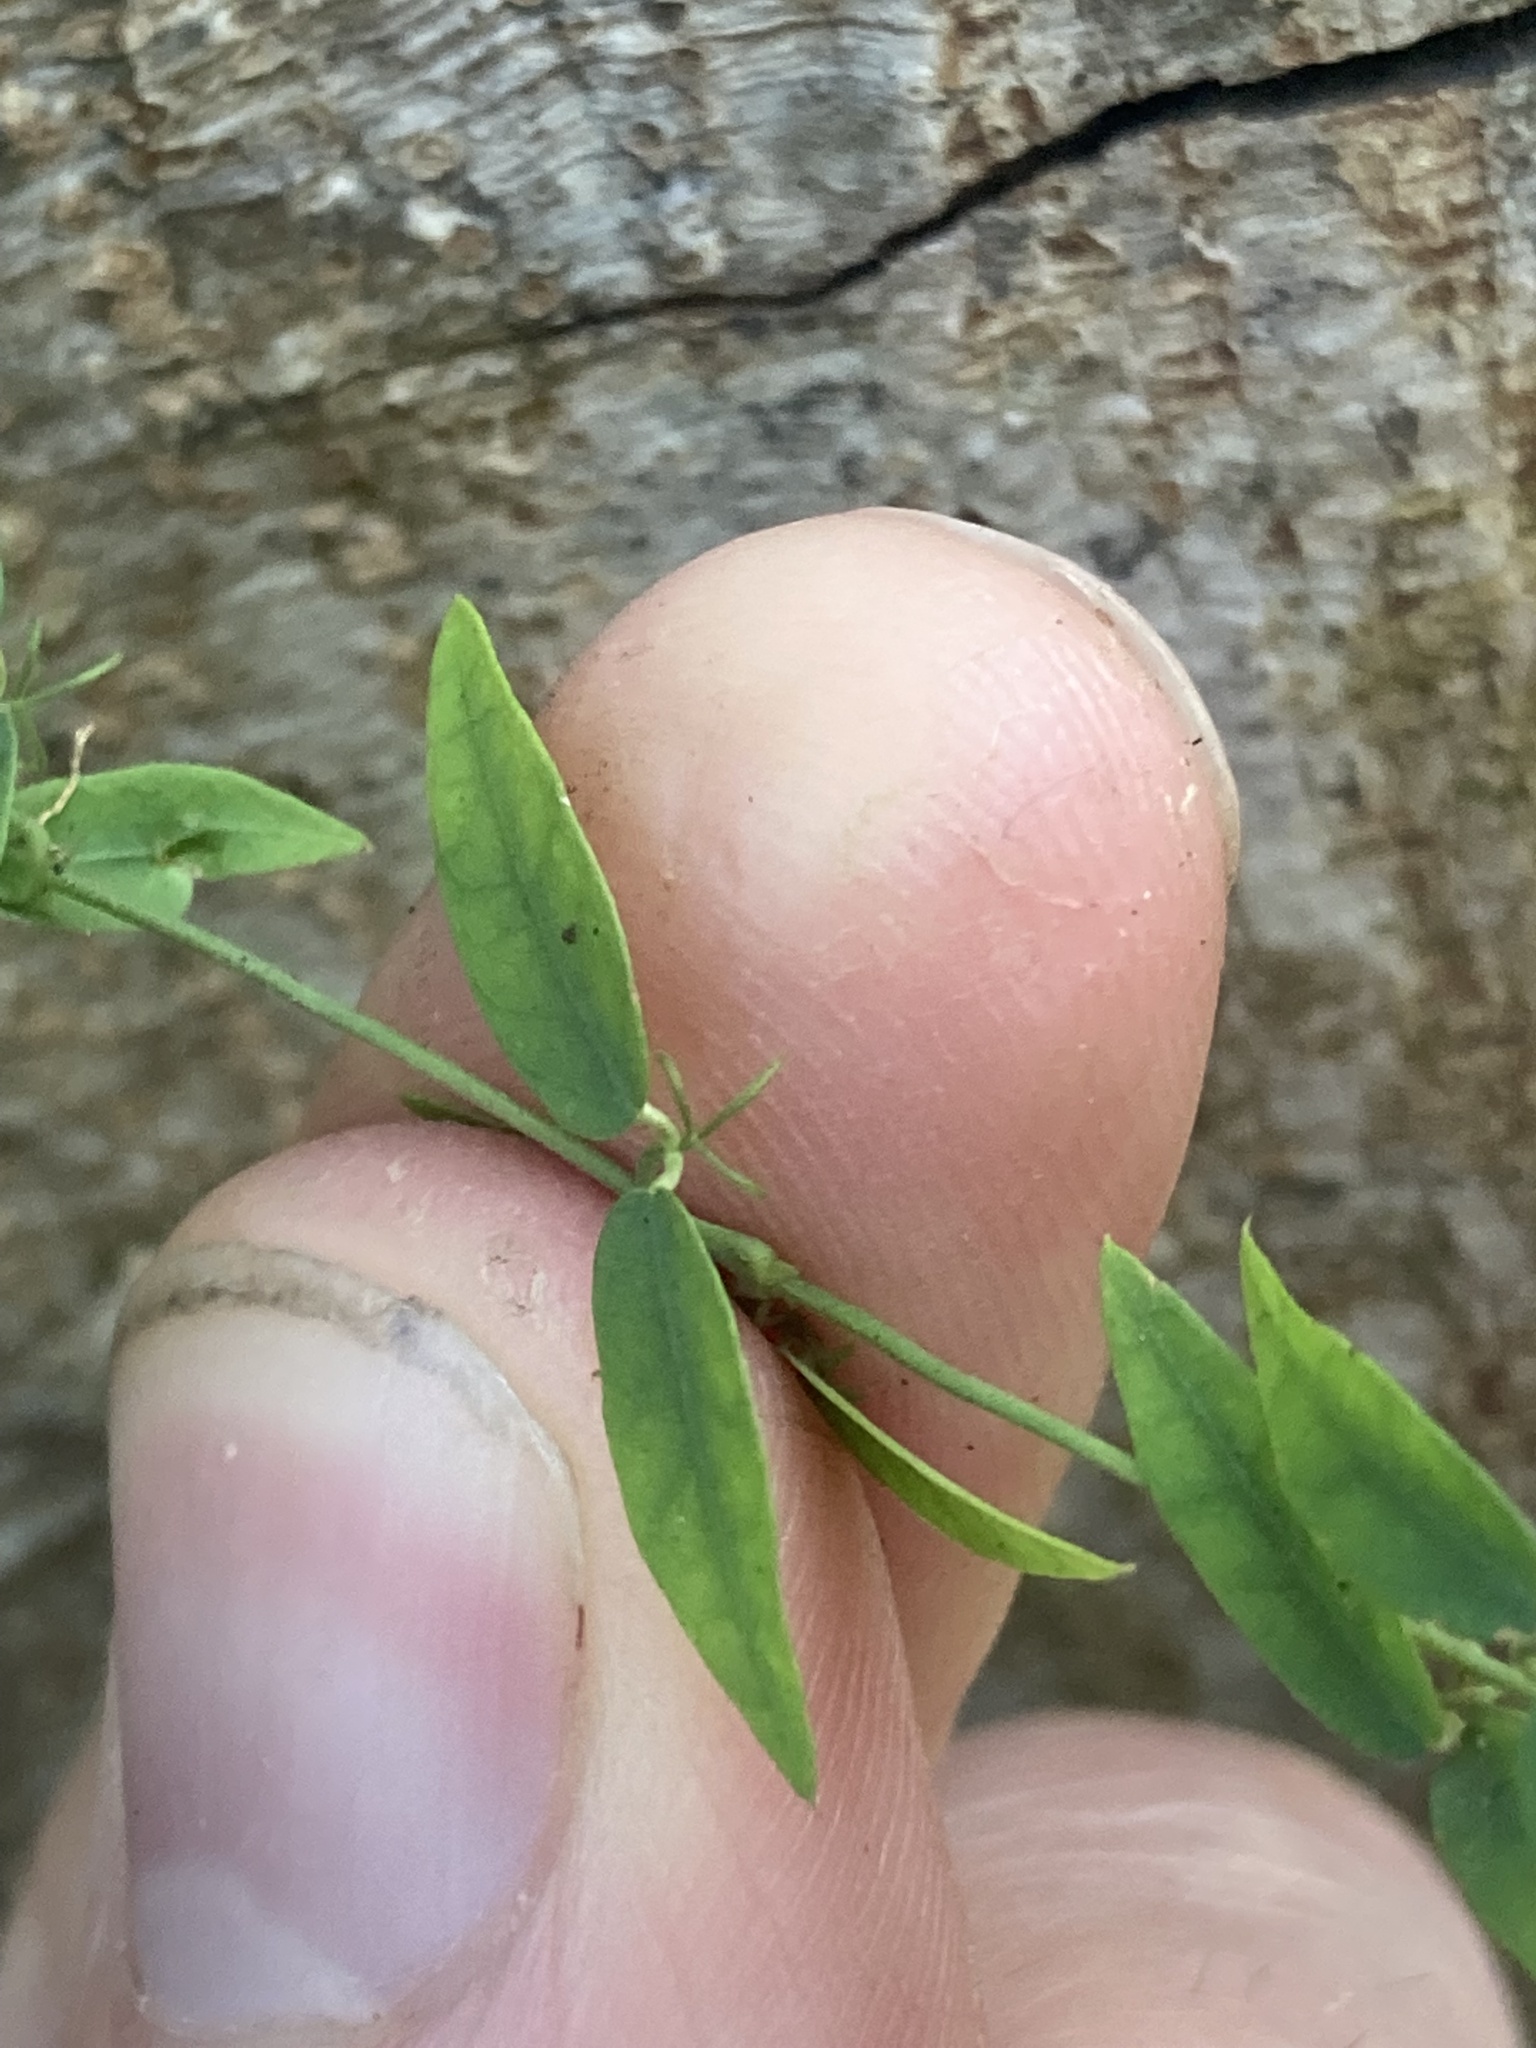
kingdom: Plantae
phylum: Tracheophyta
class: Magnoliopsida
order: Lamiales
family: Bignoniaceae
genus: Dolichandra
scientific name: Dolichandra unguis-cati
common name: Catclaw vine
